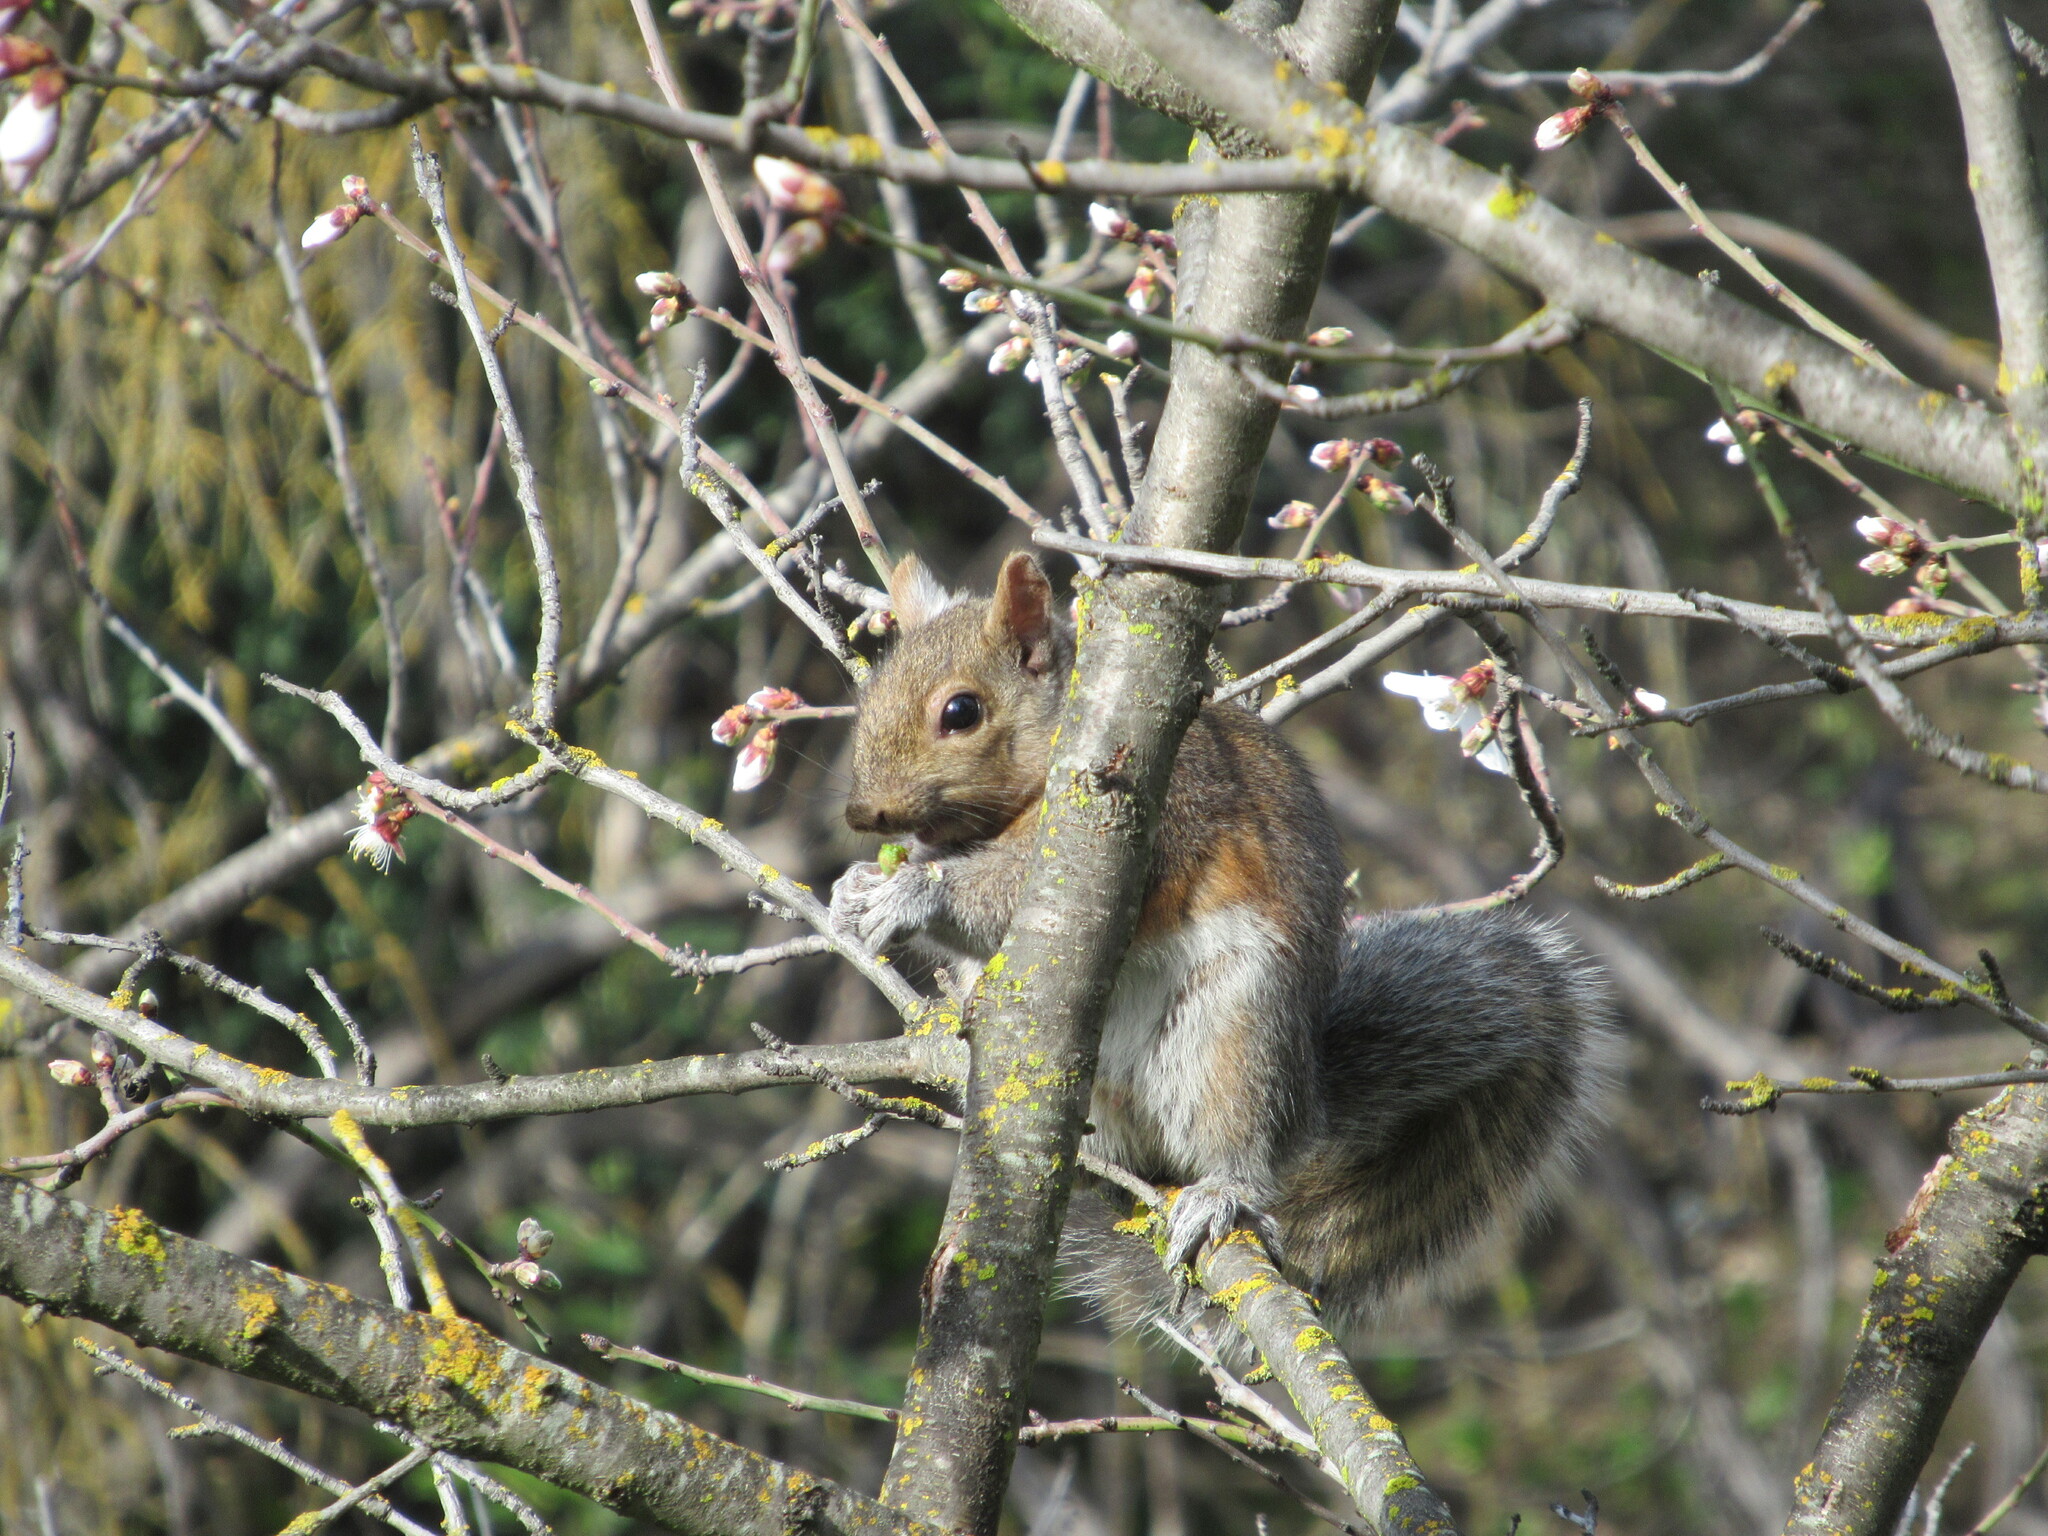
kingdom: Animalia
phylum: Chordata
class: Mammalia
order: Rodentia
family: Sciuridae
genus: Sciurus
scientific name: Sciurus carolinensis
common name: Eastern gray squirrel
